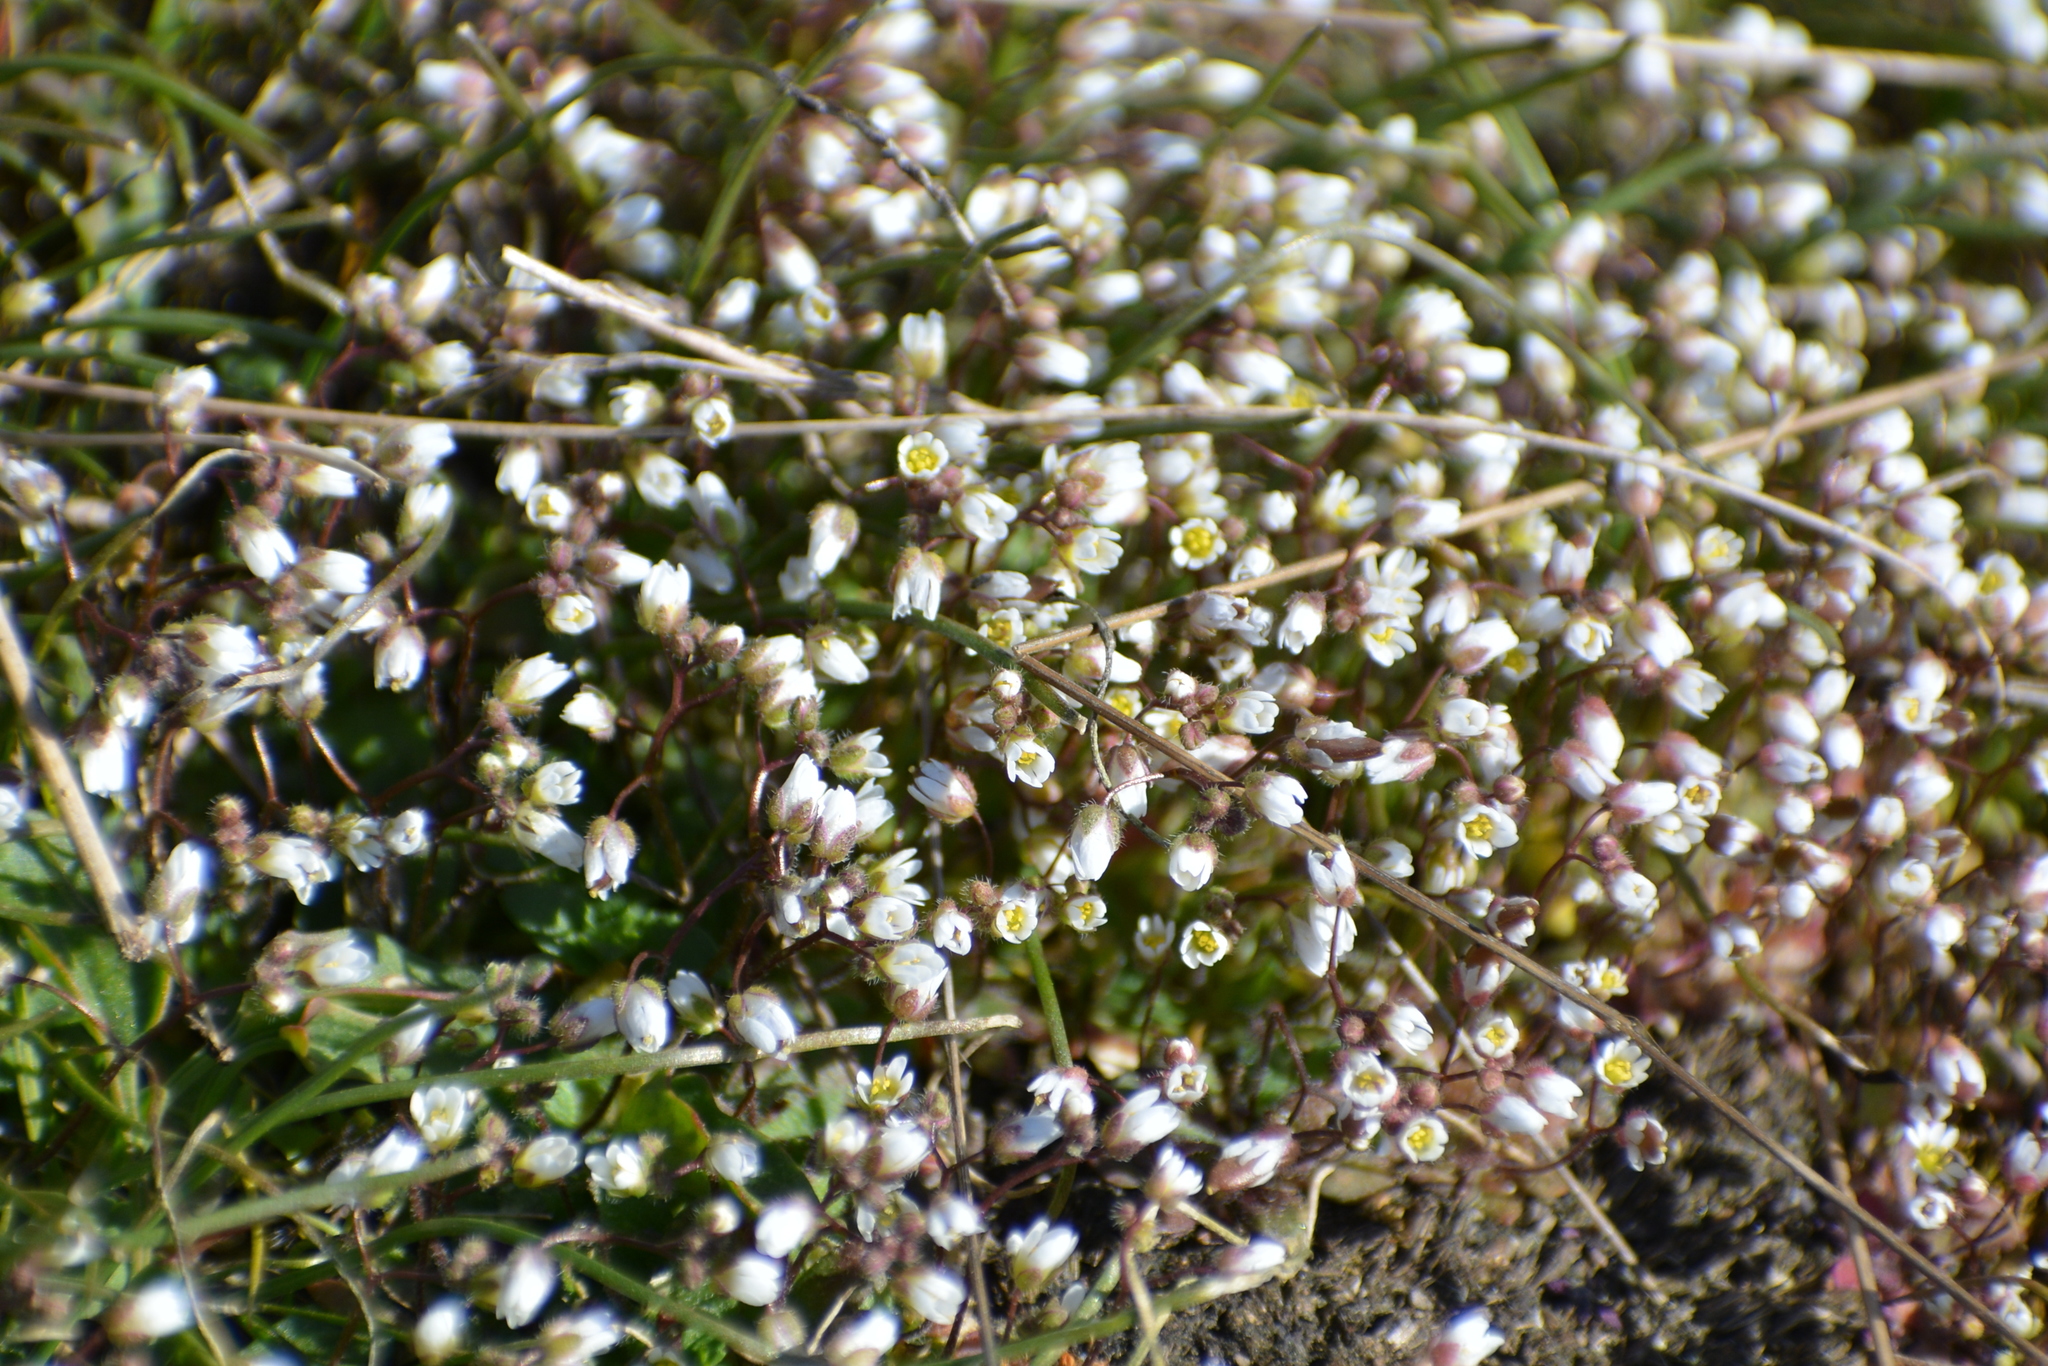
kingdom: Plantae
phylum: Tracheophyta
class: Magnoliopsida
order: Brassicales
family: Brassicaceae
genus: Draba
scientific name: Draba verna
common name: Spring draba
